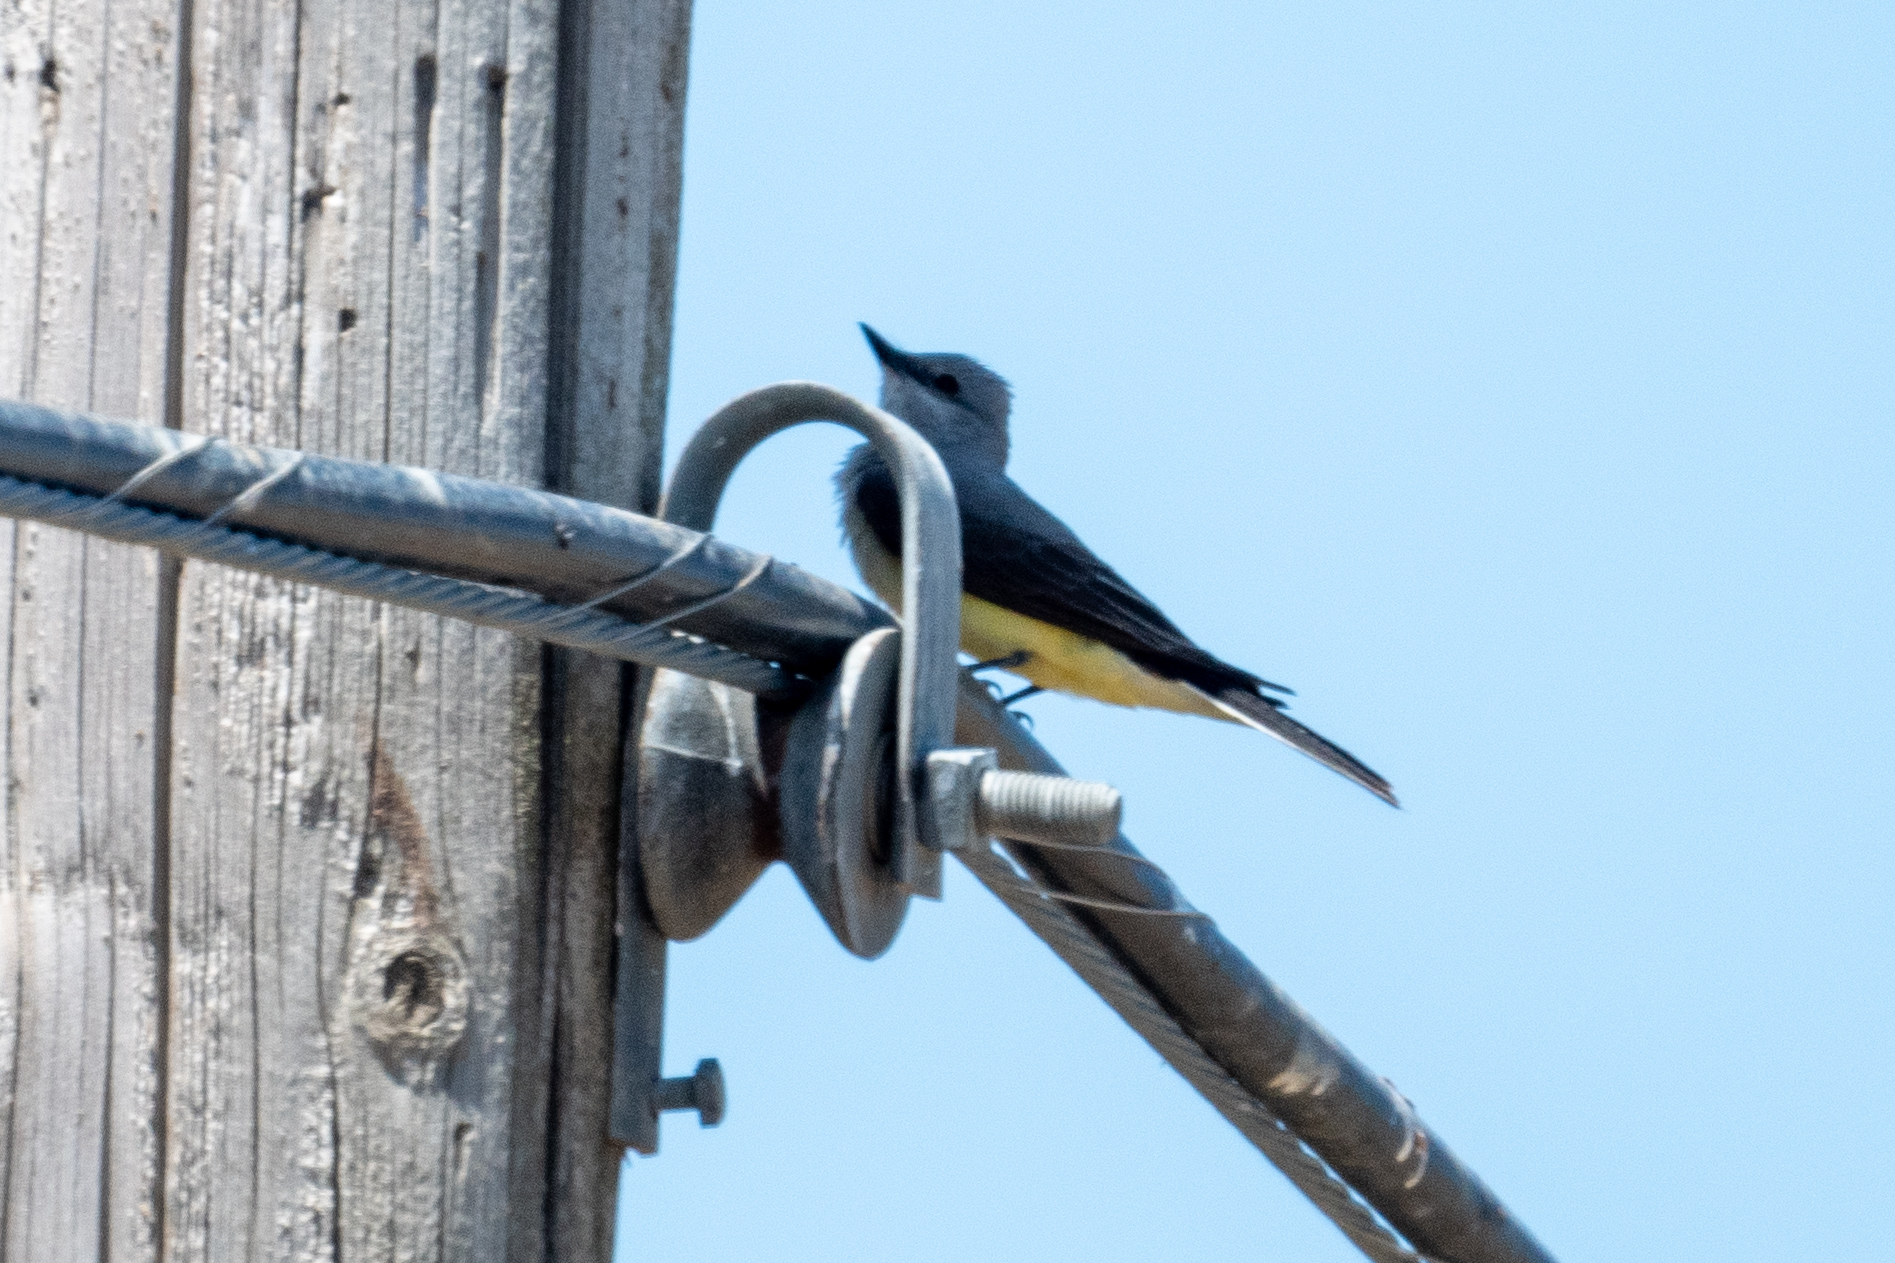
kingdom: Animalia
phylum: Chordata
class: Aves
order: Passeriformes
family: Tyrannidae
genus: Tyrannus
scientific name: Tyrannus verticalis
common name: Western kingbird
